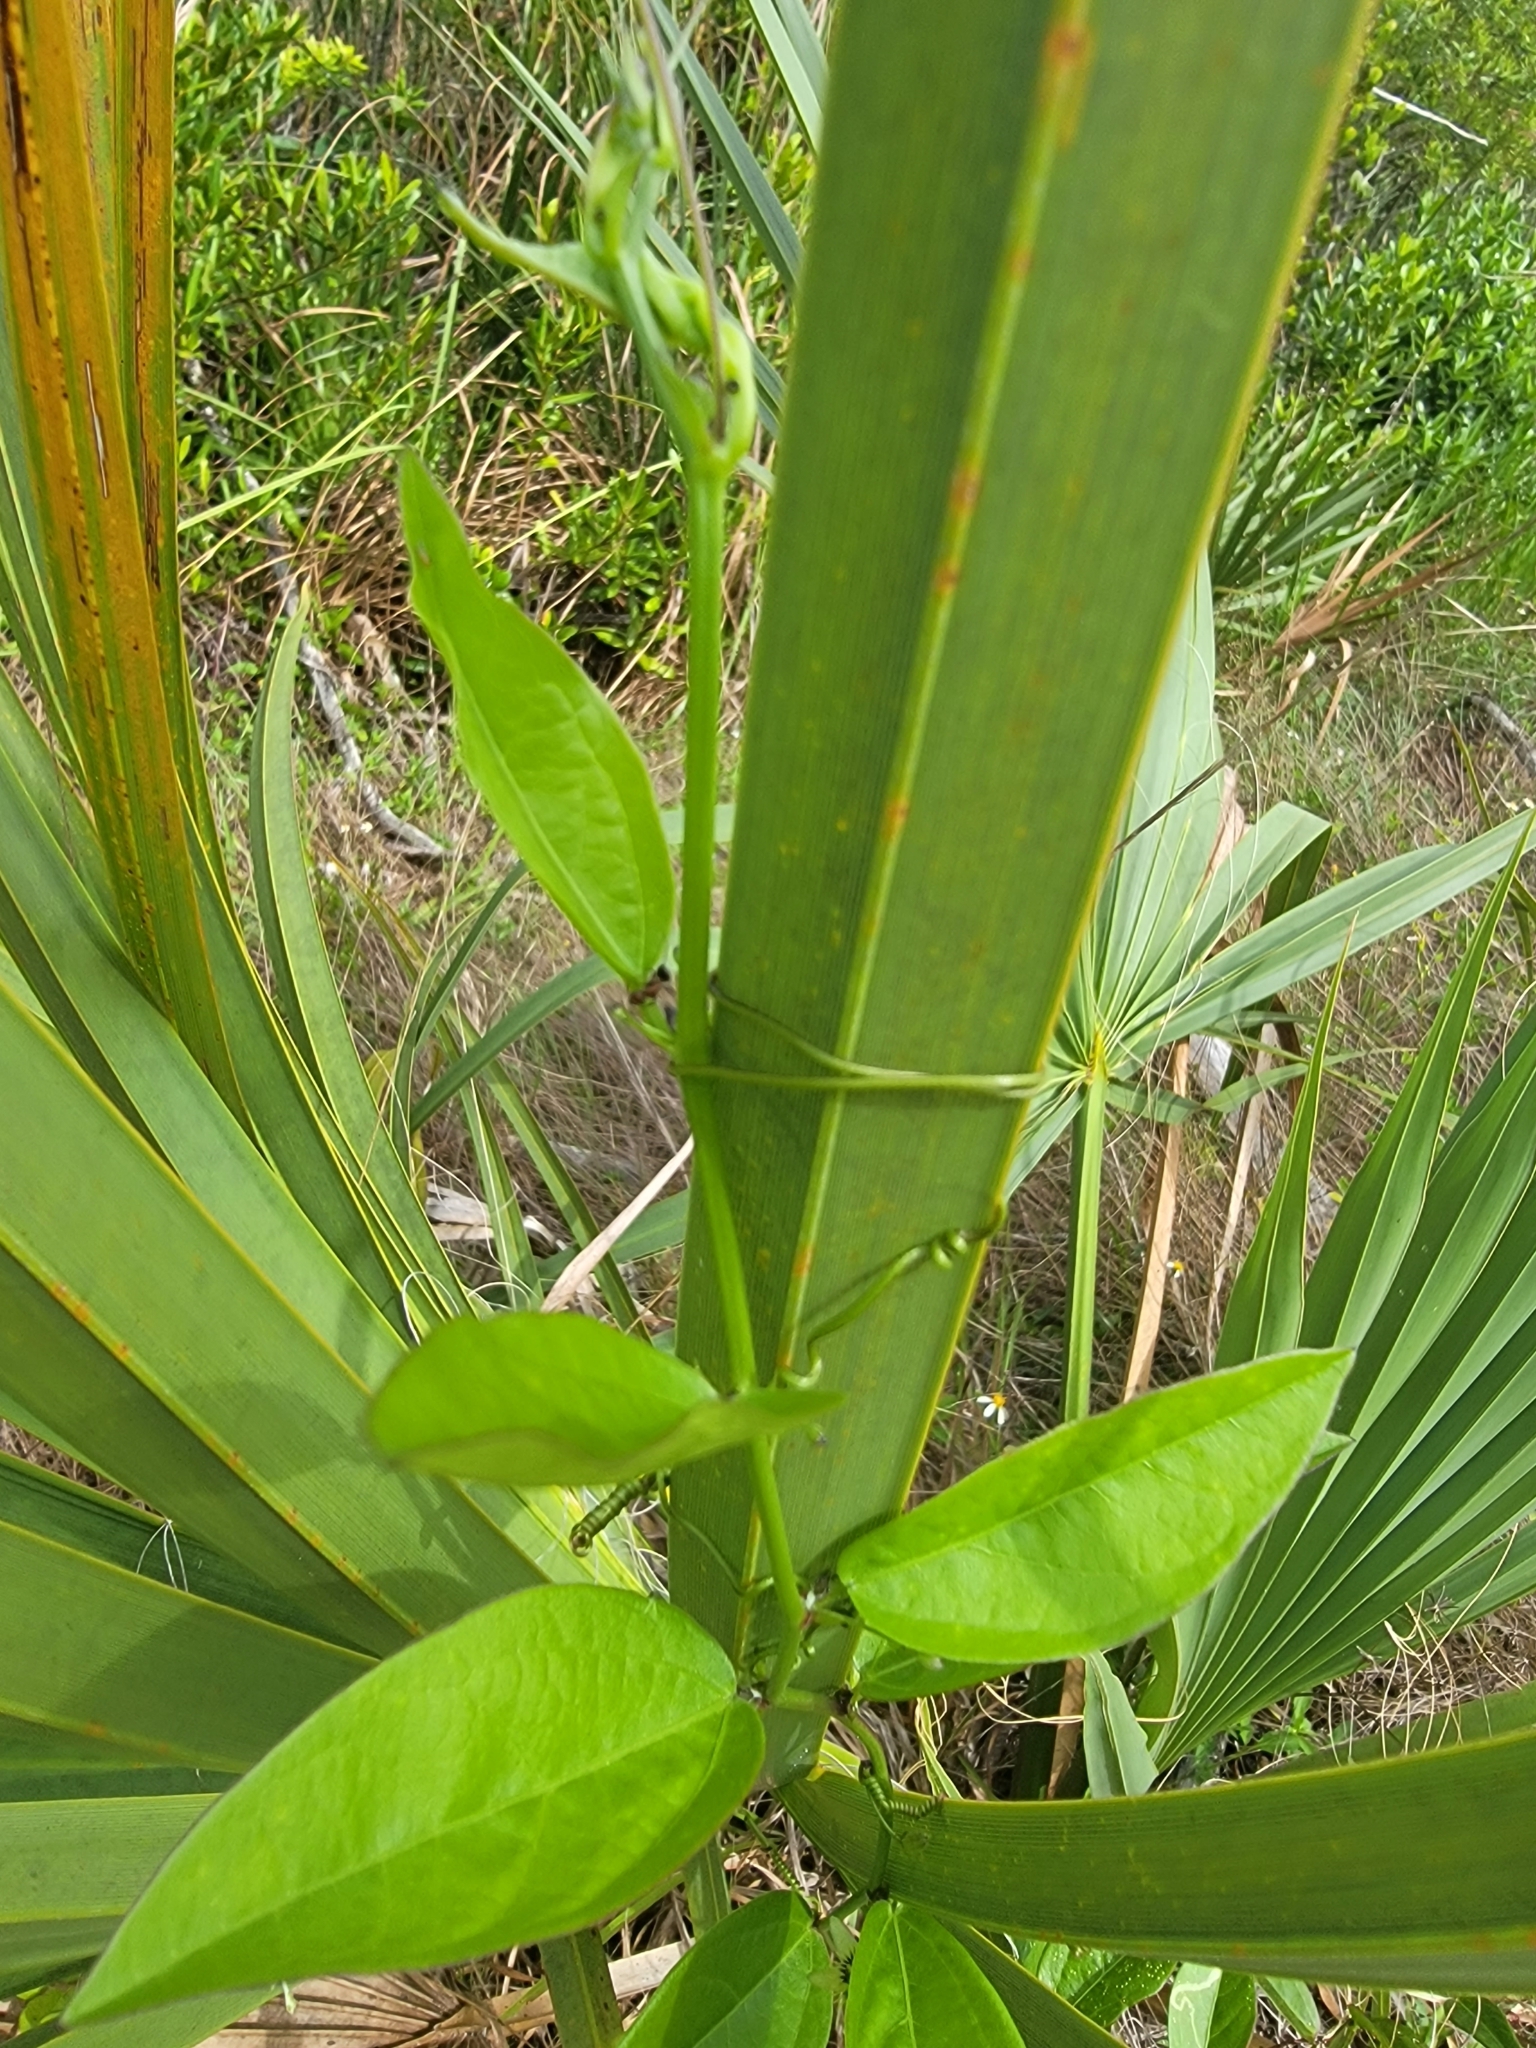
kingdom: Plantae
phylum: Tracheophyta
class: Magnoliopsida
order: Malpighiales
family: Passifloraceae
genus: Passiflora
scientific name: Passiflora pallida
